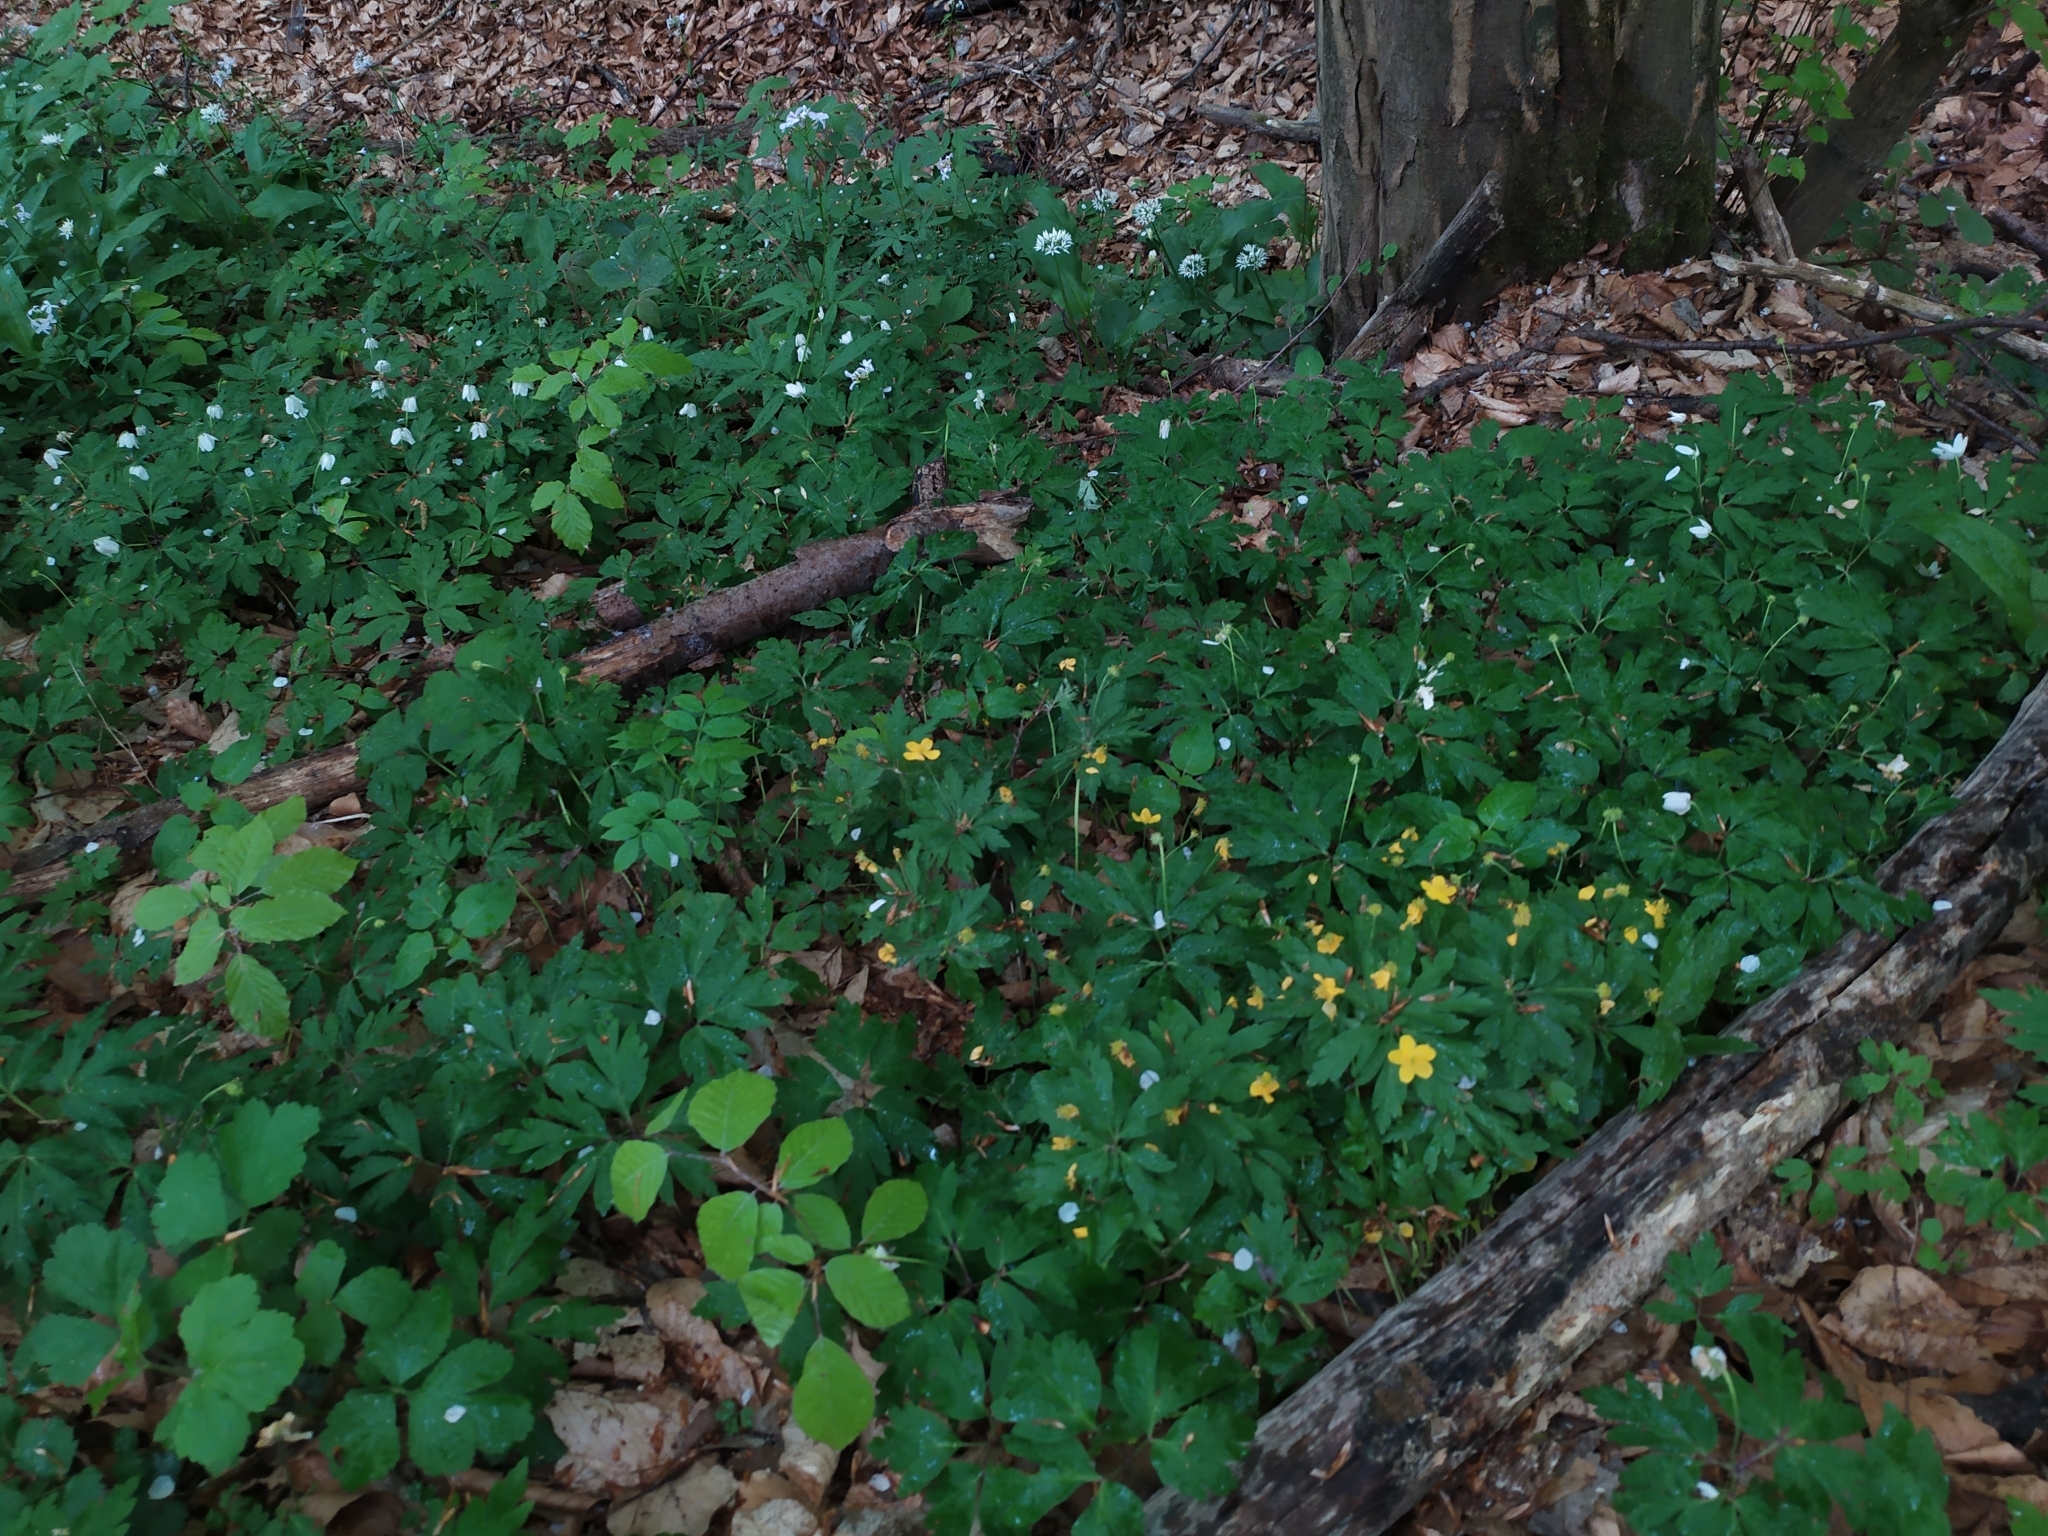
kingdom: Plantae
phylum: Tracheophyta
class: Magnoliopsida
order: Ranunculales
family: Ranunculaceae
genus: Anemone
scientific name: Anemone ranunculoides
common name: Yellow anemone
